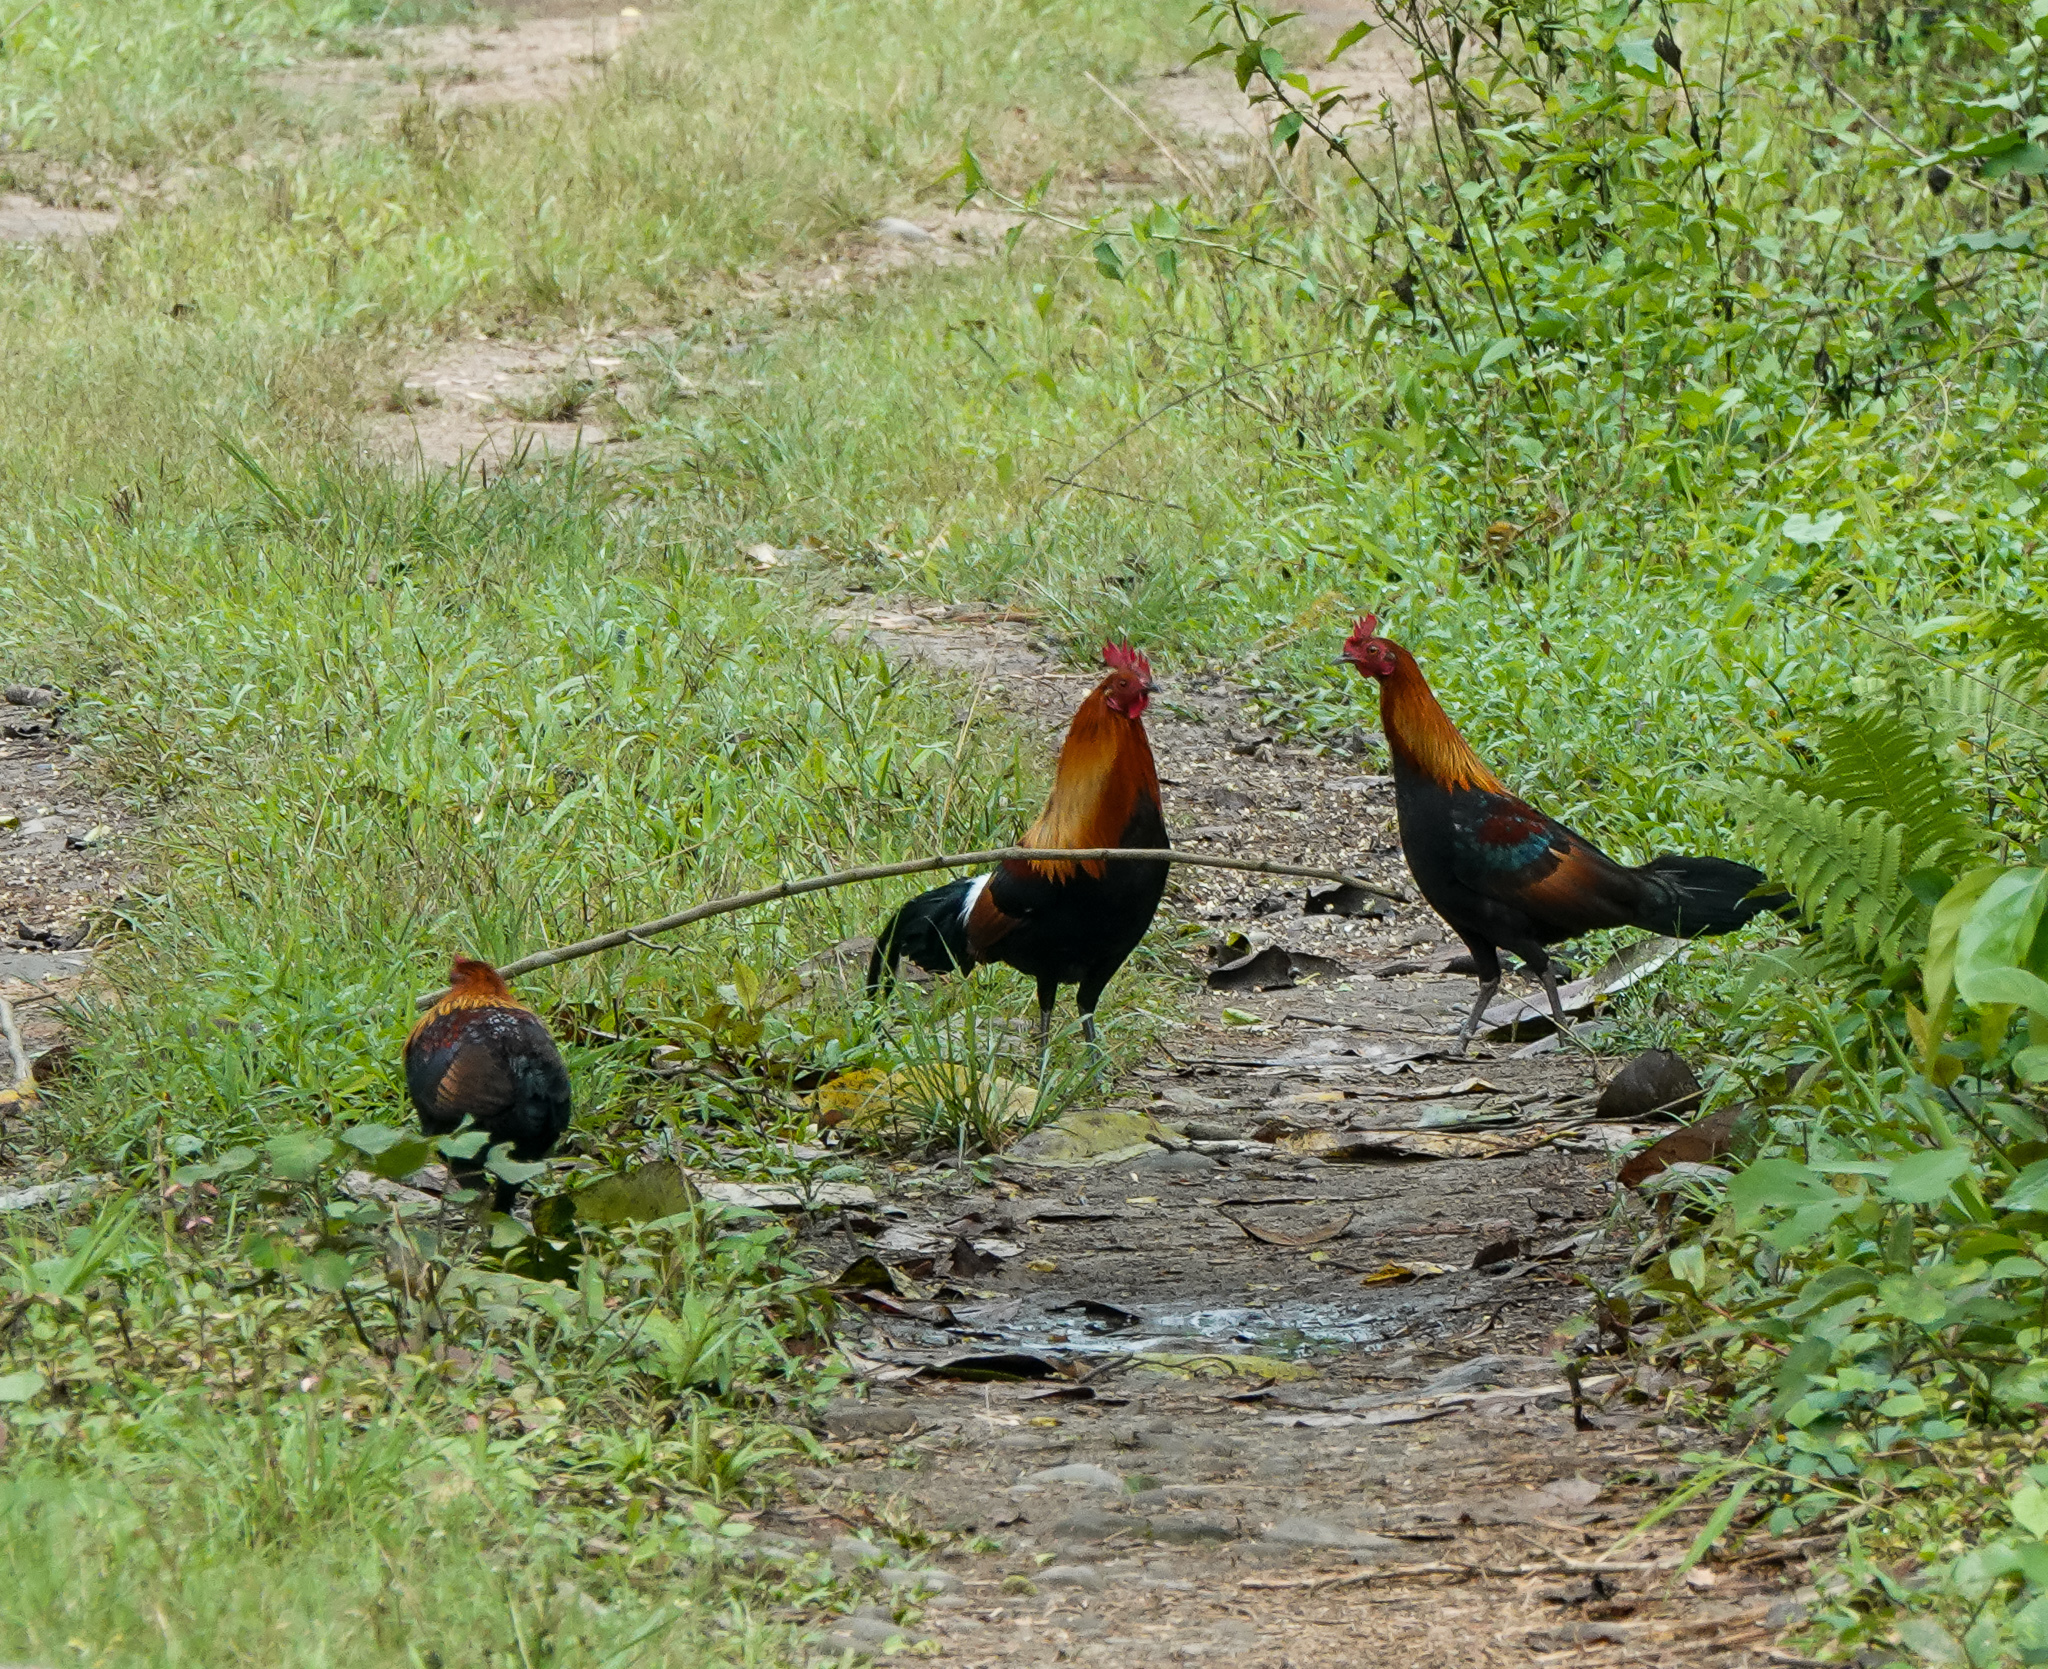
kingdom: Animalia
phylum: Chordata
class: Aves
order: Galliformes
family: Phasianidae
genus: Gallus
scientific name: Gallus gallus
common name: Red junglefowl
